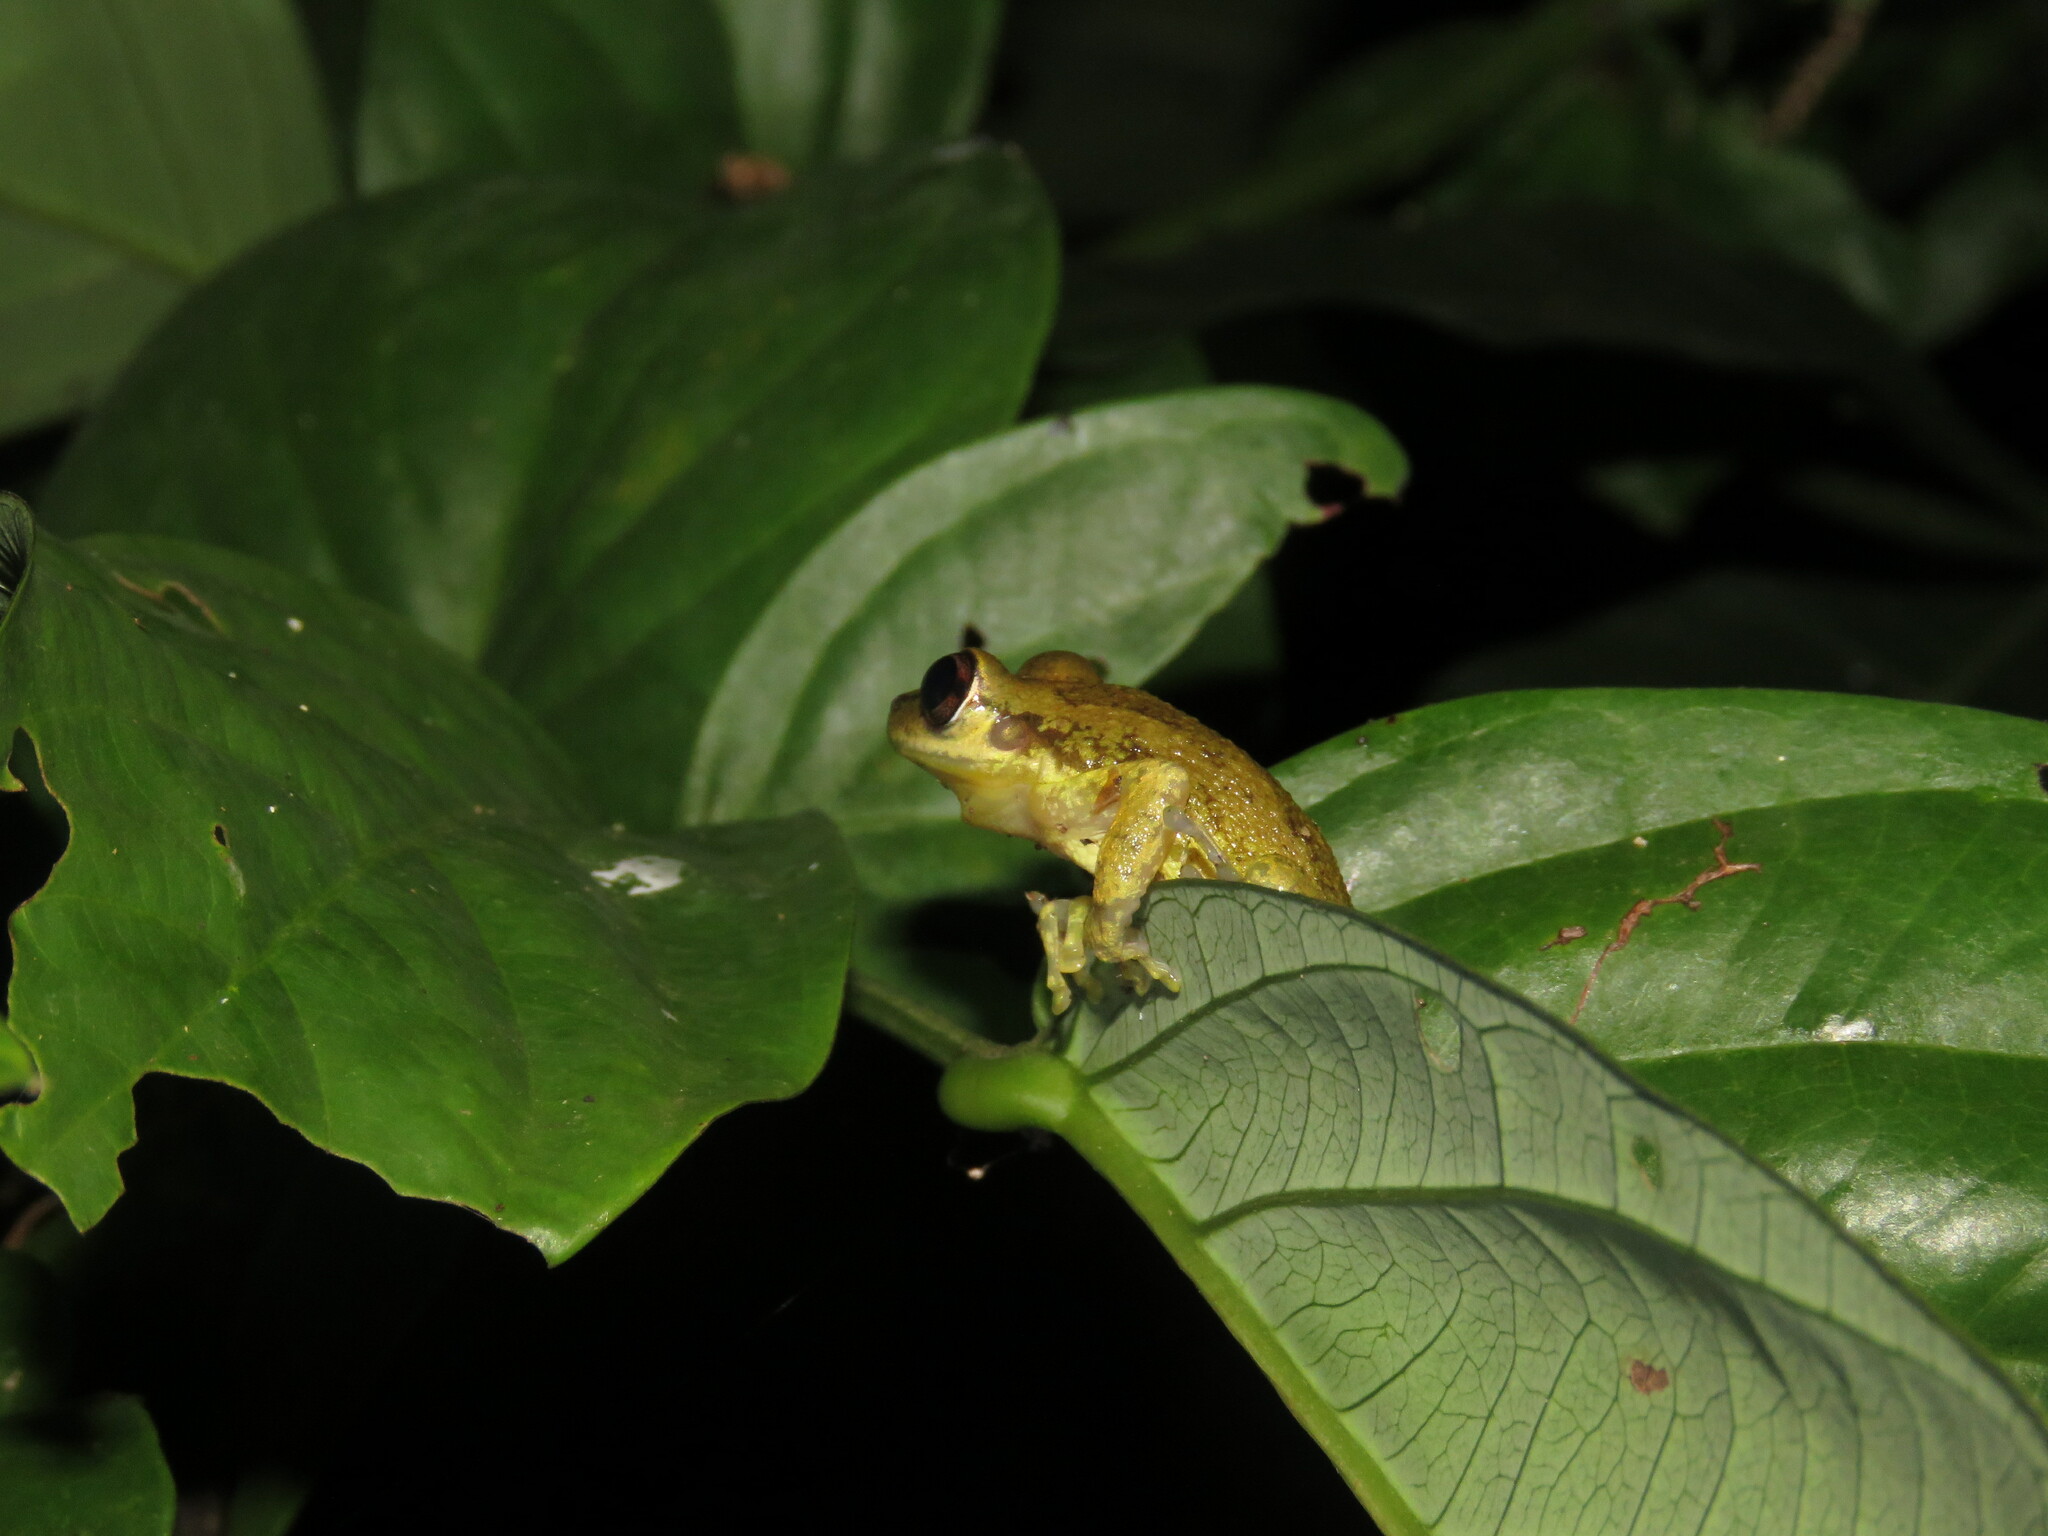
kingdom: Animalia
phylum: Chordata
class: Amphibia
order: Anura
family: Hylidae
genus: Scinax
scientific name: Scinax ruber
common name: Red snouted treefrog
